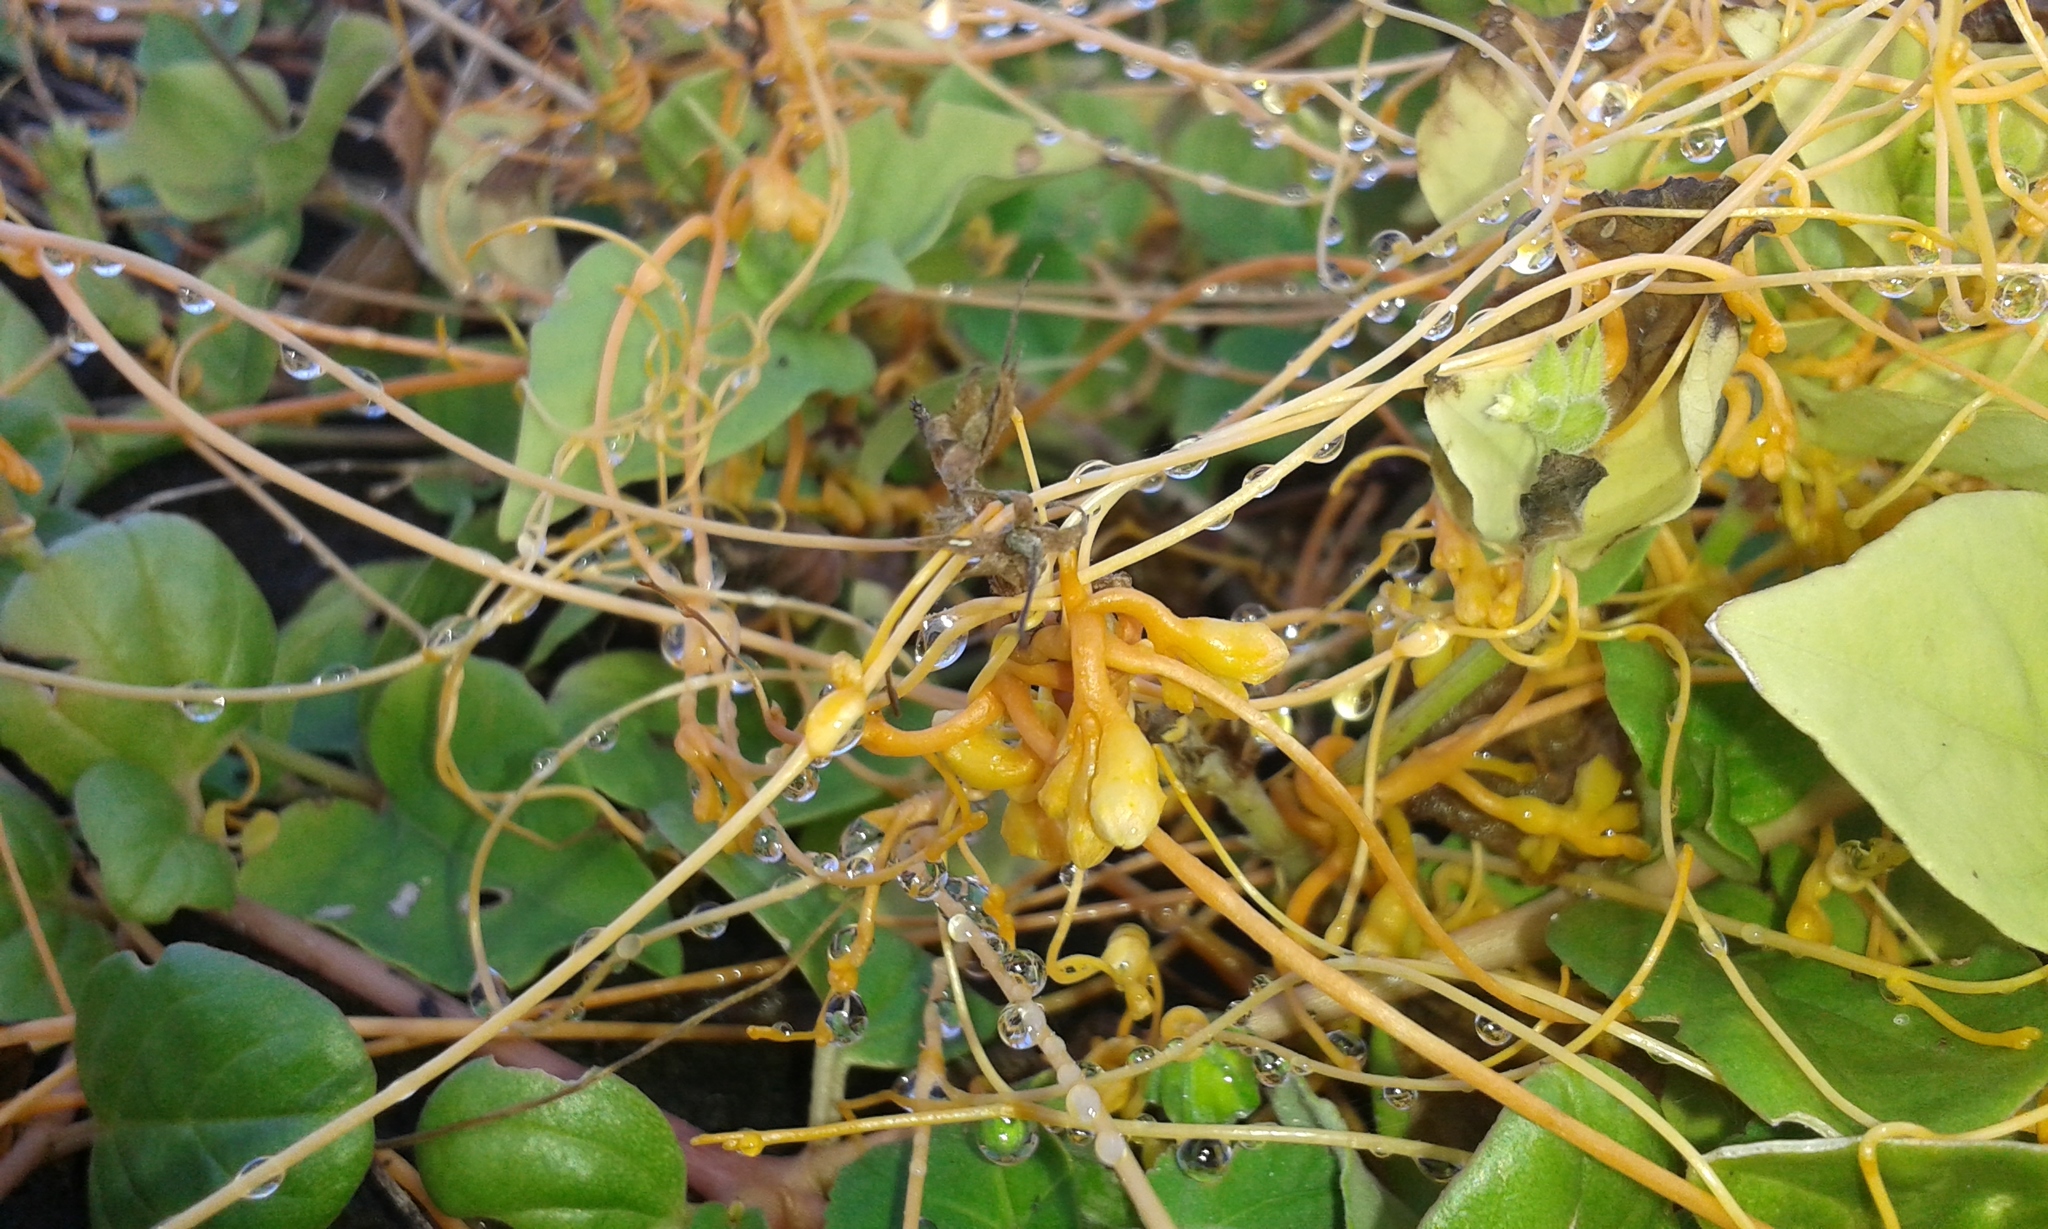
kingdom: Plantae
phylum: Tracheophyta
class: Magnoliopsida
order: Solanales
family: Convolvulaceae
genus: Cuscuta
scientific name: Cuscuta sandwichiana
